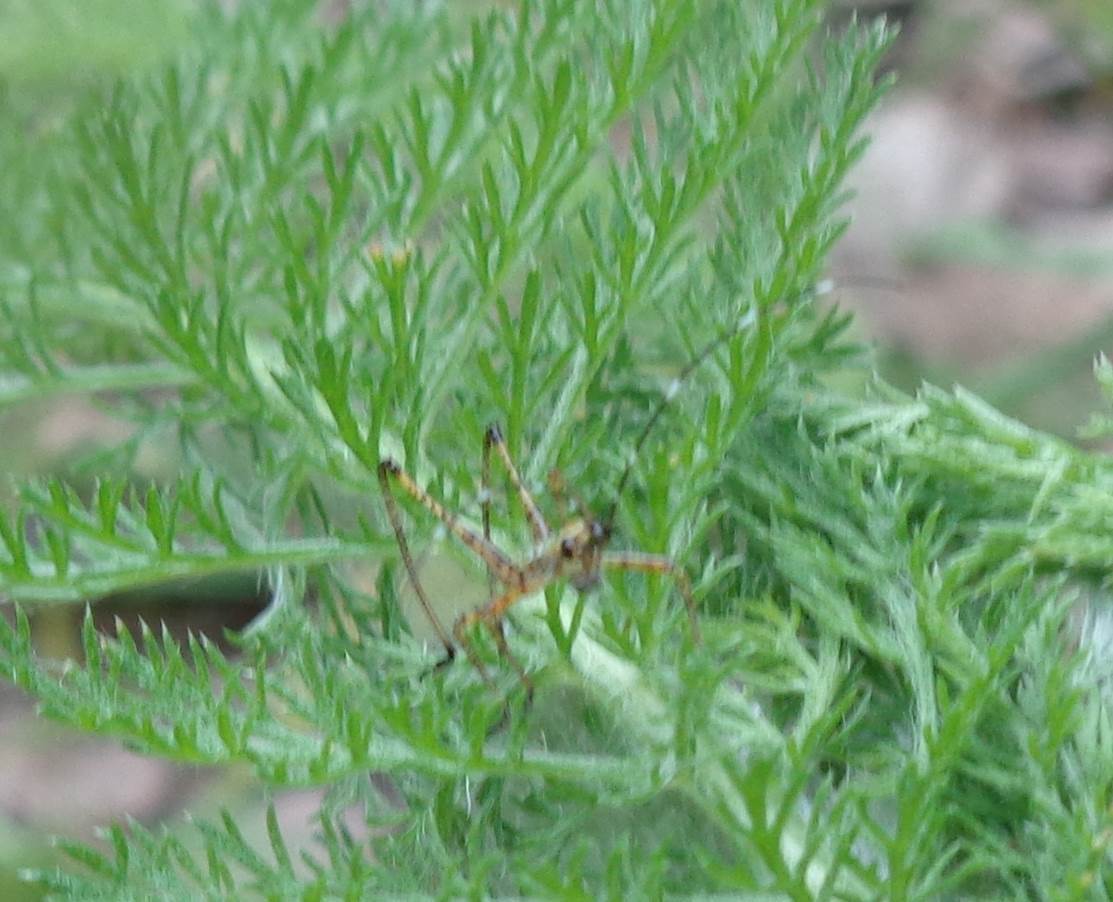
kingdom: Animalia
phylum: Arthropoda
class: Insecta
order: Orthoptera
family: Tettigoniidae
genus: Scudderia
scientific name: Scudderia furcata
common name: Fork-tailed bush katydid
